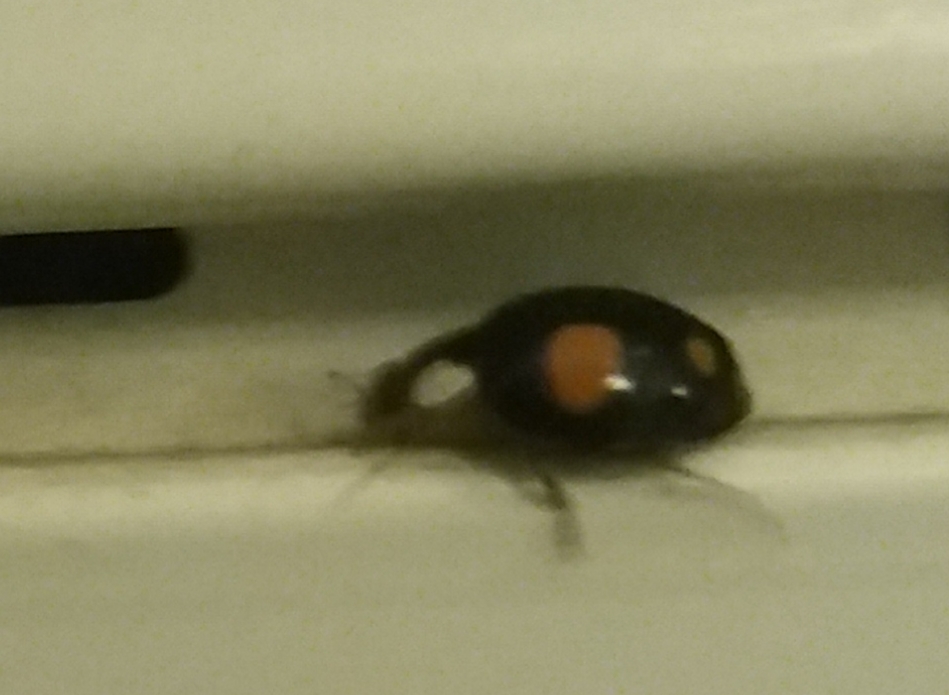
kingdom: Animalia
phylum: Arthropoda
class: Insecta
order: Coleoptera
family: Coccinellidae
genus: Harmonia
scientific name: Harmonia axyridis
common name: Harlequin ladybird
